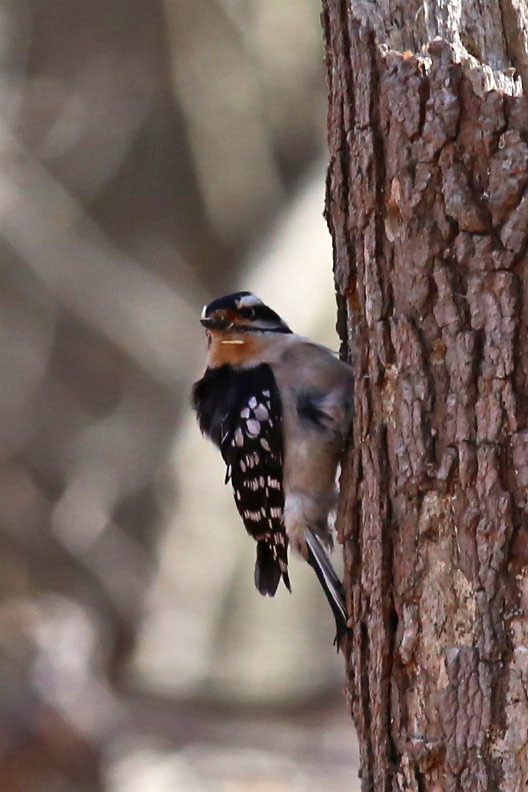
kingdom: Animalia
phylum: Chordata
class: Aves
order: Piciformes
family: Picidae
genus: Dryobates
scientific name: Dryobates pubescens
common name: Downy woodpecker
